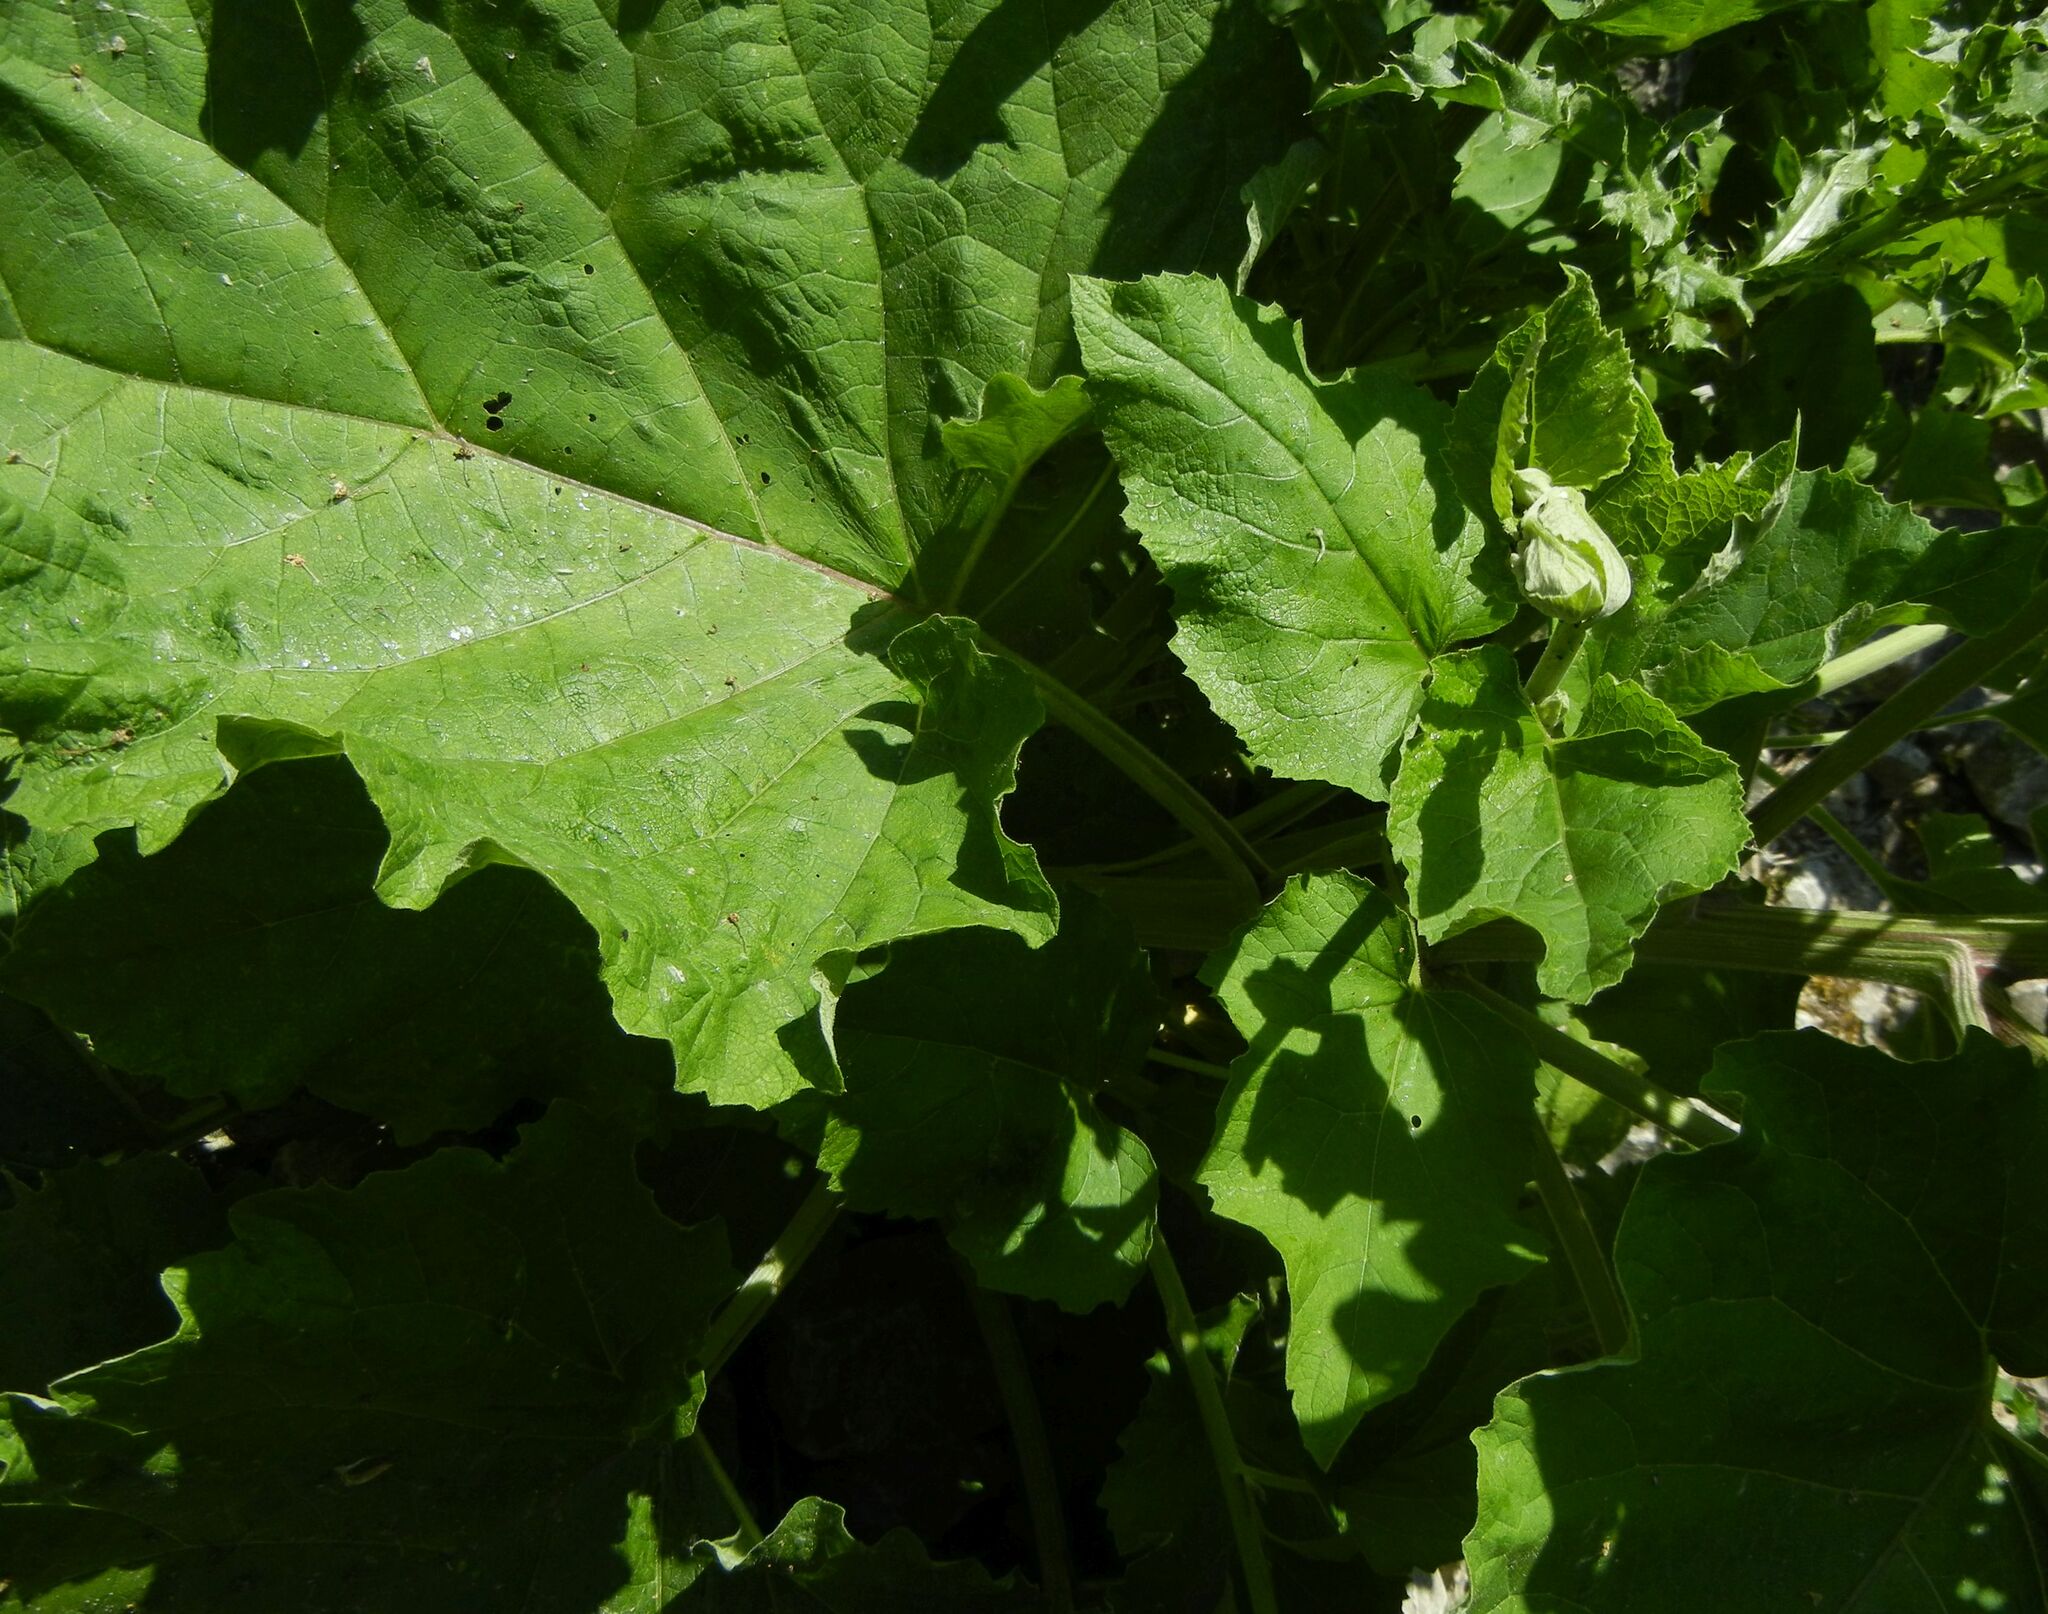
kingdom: Plantae
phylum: Tracheophyta
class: Magnoliopsida
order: Asterales
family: Asteraceae
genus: Arctium
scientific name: Arctium minus
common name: Lesser burdock
